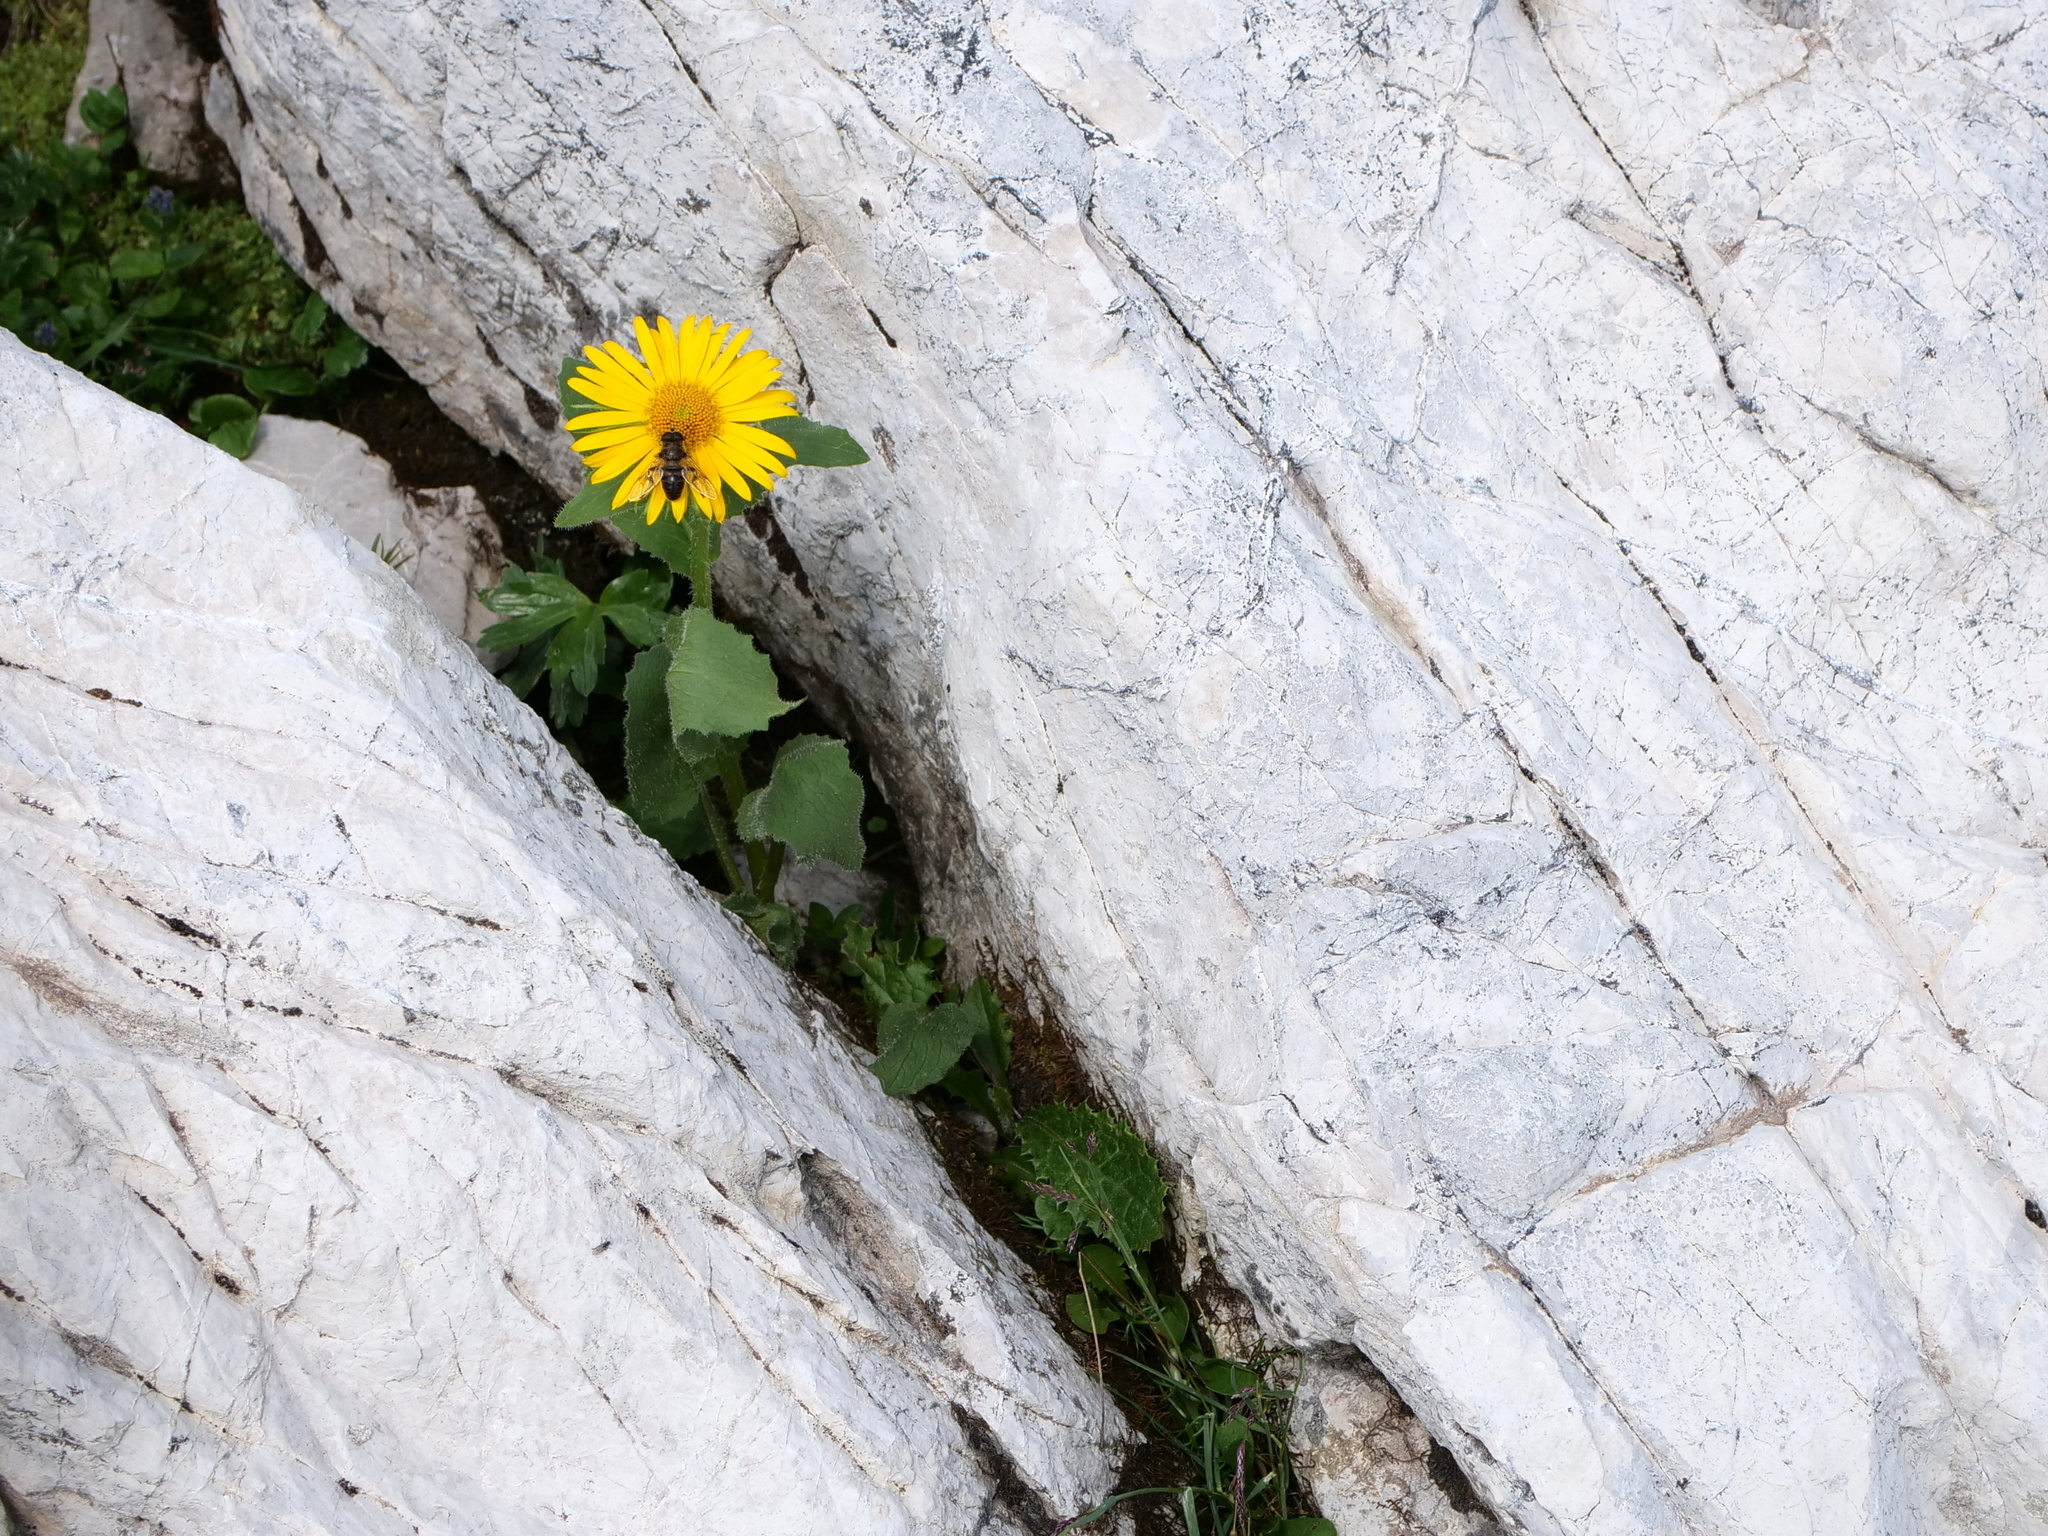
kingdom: Plantae
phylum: Tracheophyta
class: Magnoliopsida
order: Asterales
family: Asteraceae
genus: Doronicum
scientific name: Doronicum grandiflorum
